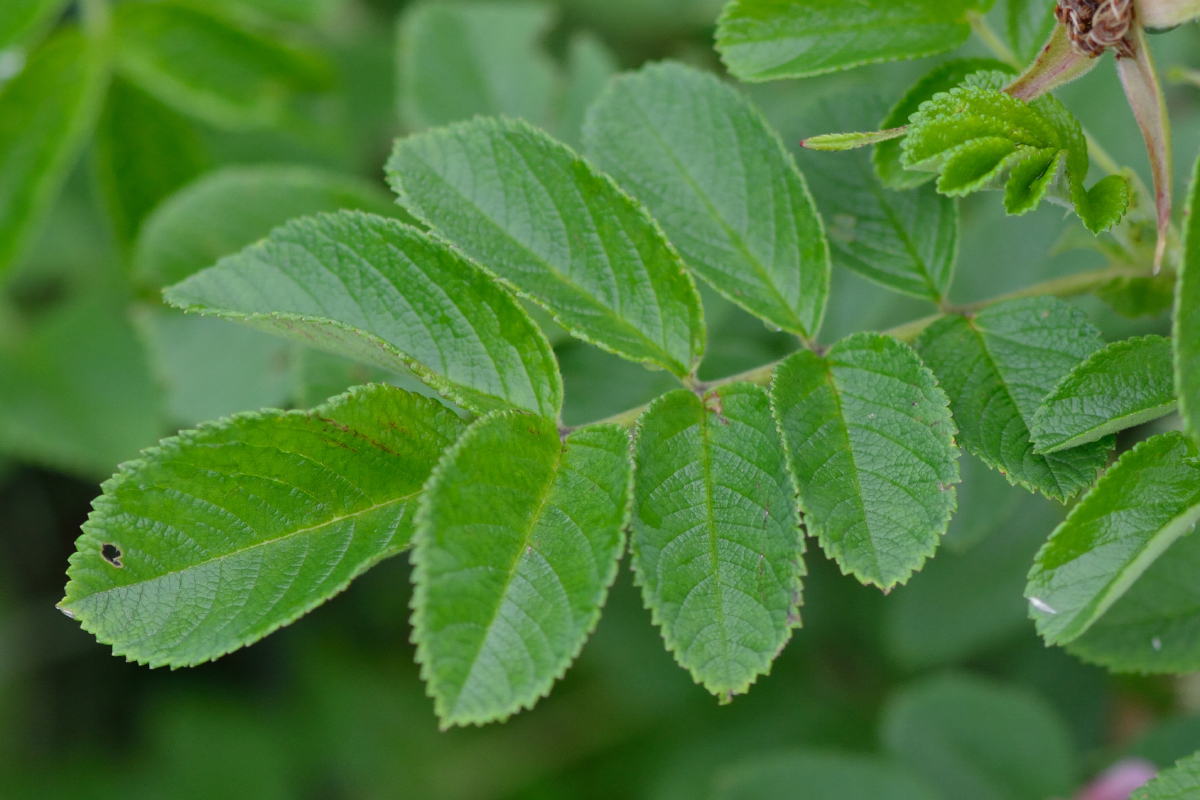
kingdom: Plantae
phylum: Tracheophyta
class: Magnoliopsida
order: Rosales
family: Rosaceae
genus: Rosa
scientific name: Rosa rugosa
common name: Japanese rose
